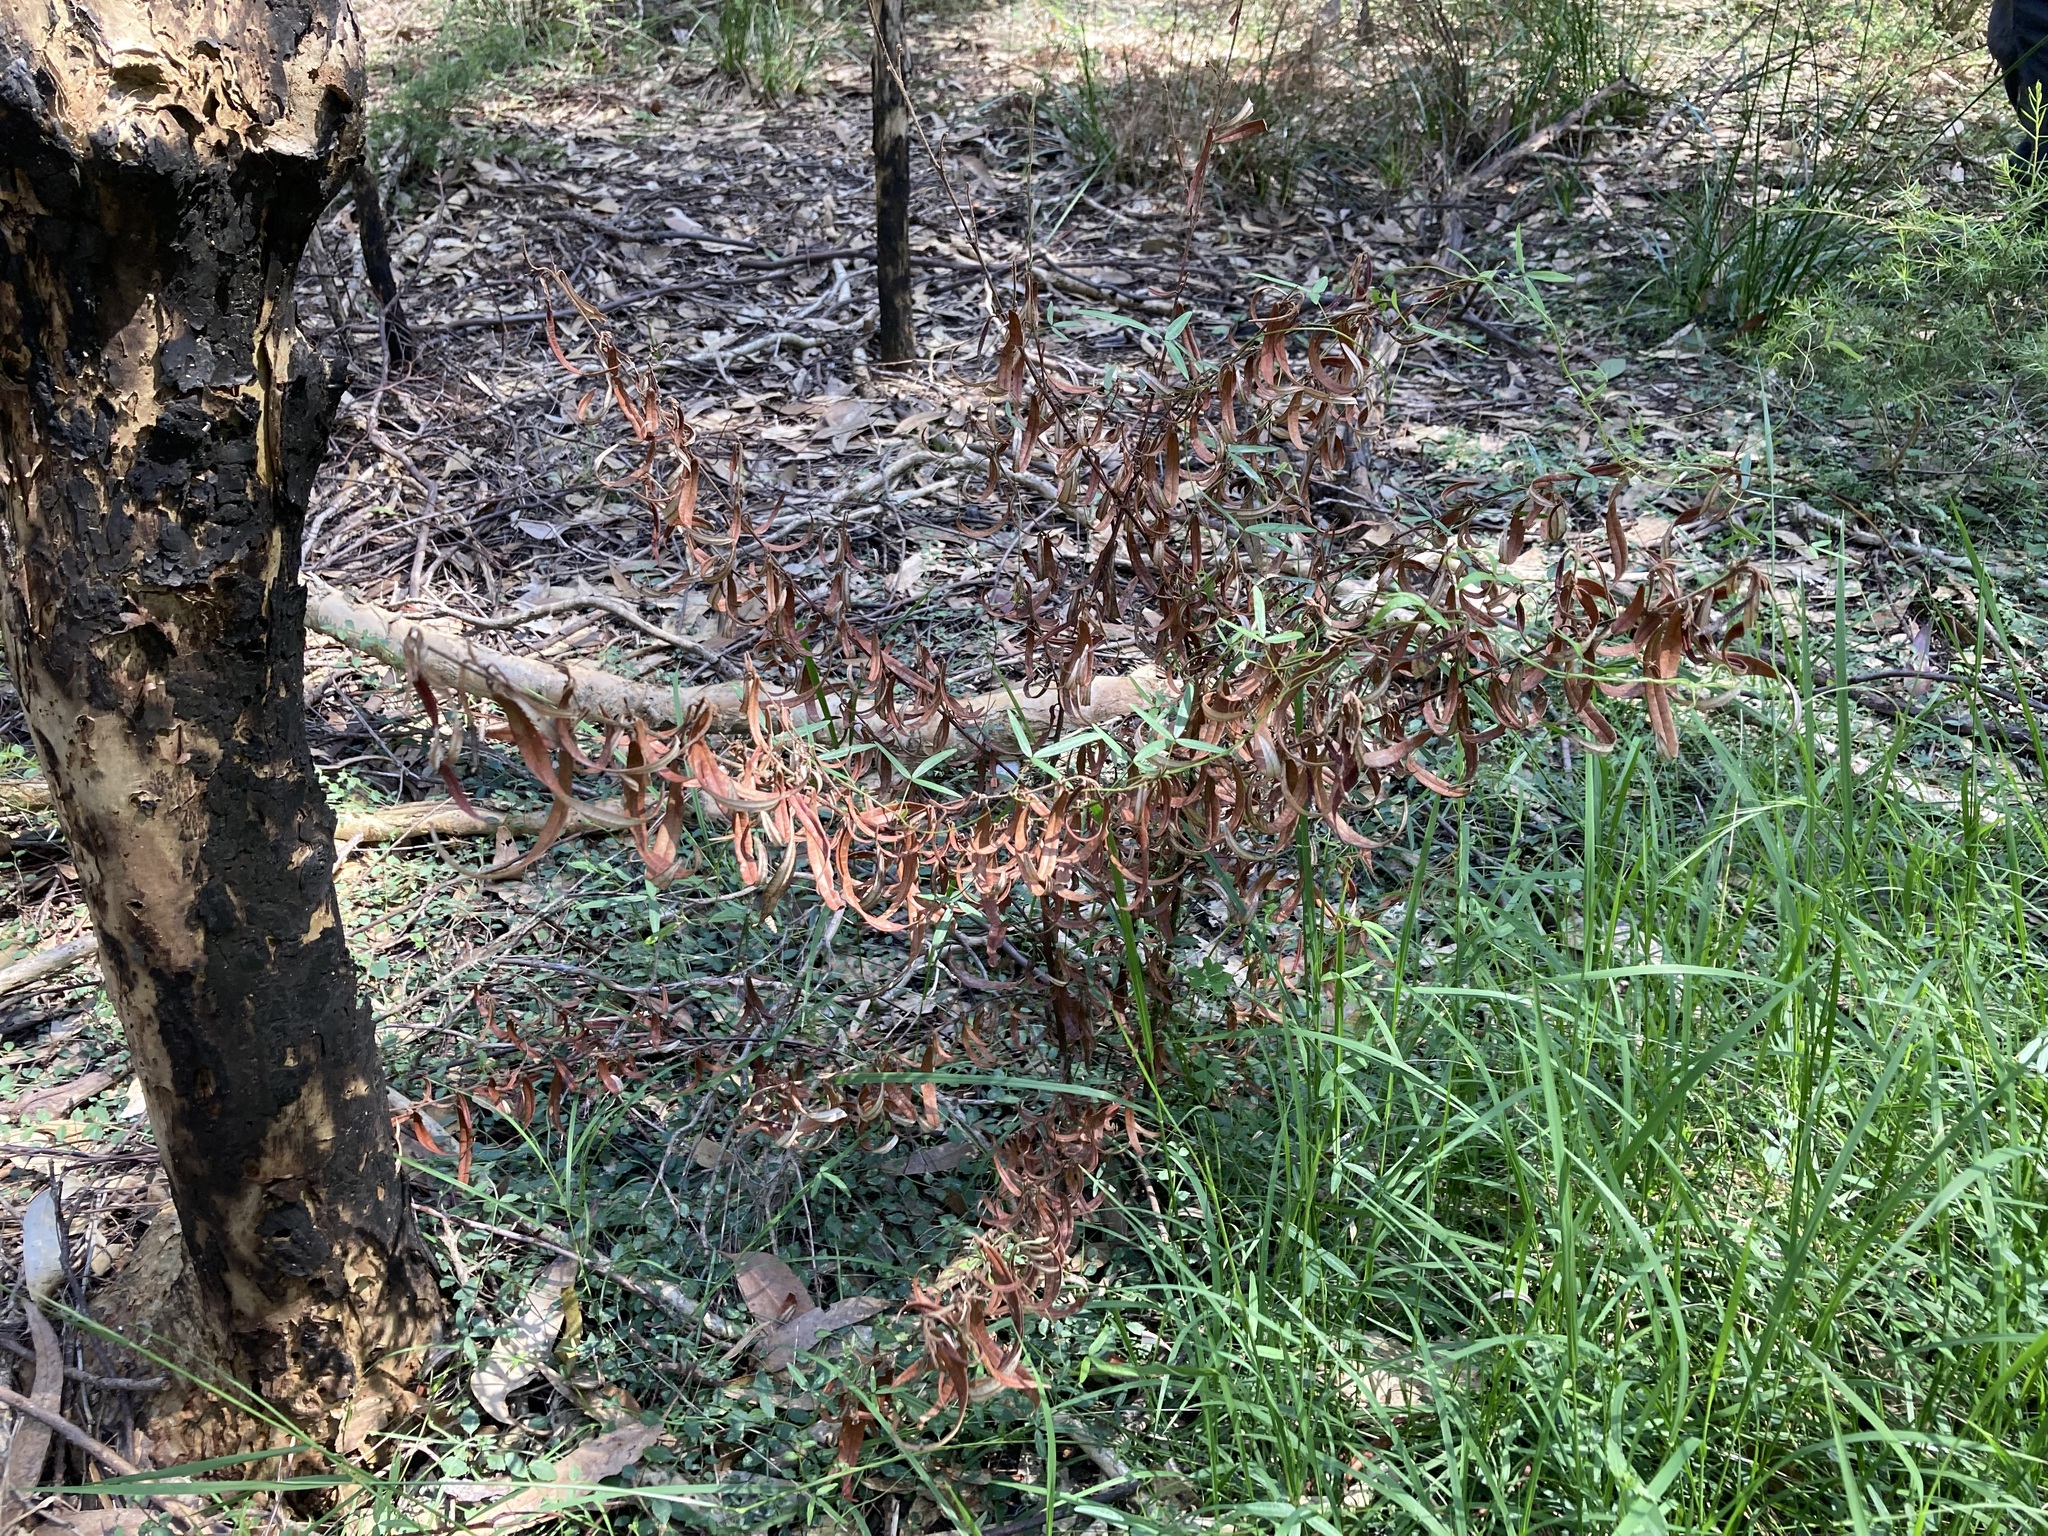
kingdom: Plantae
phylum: Tracheophyta
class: Magnoliopsida
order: Malvales
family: Malvaceae
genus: Lasiopetalum
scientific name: Lasiopetalum parviflorum
